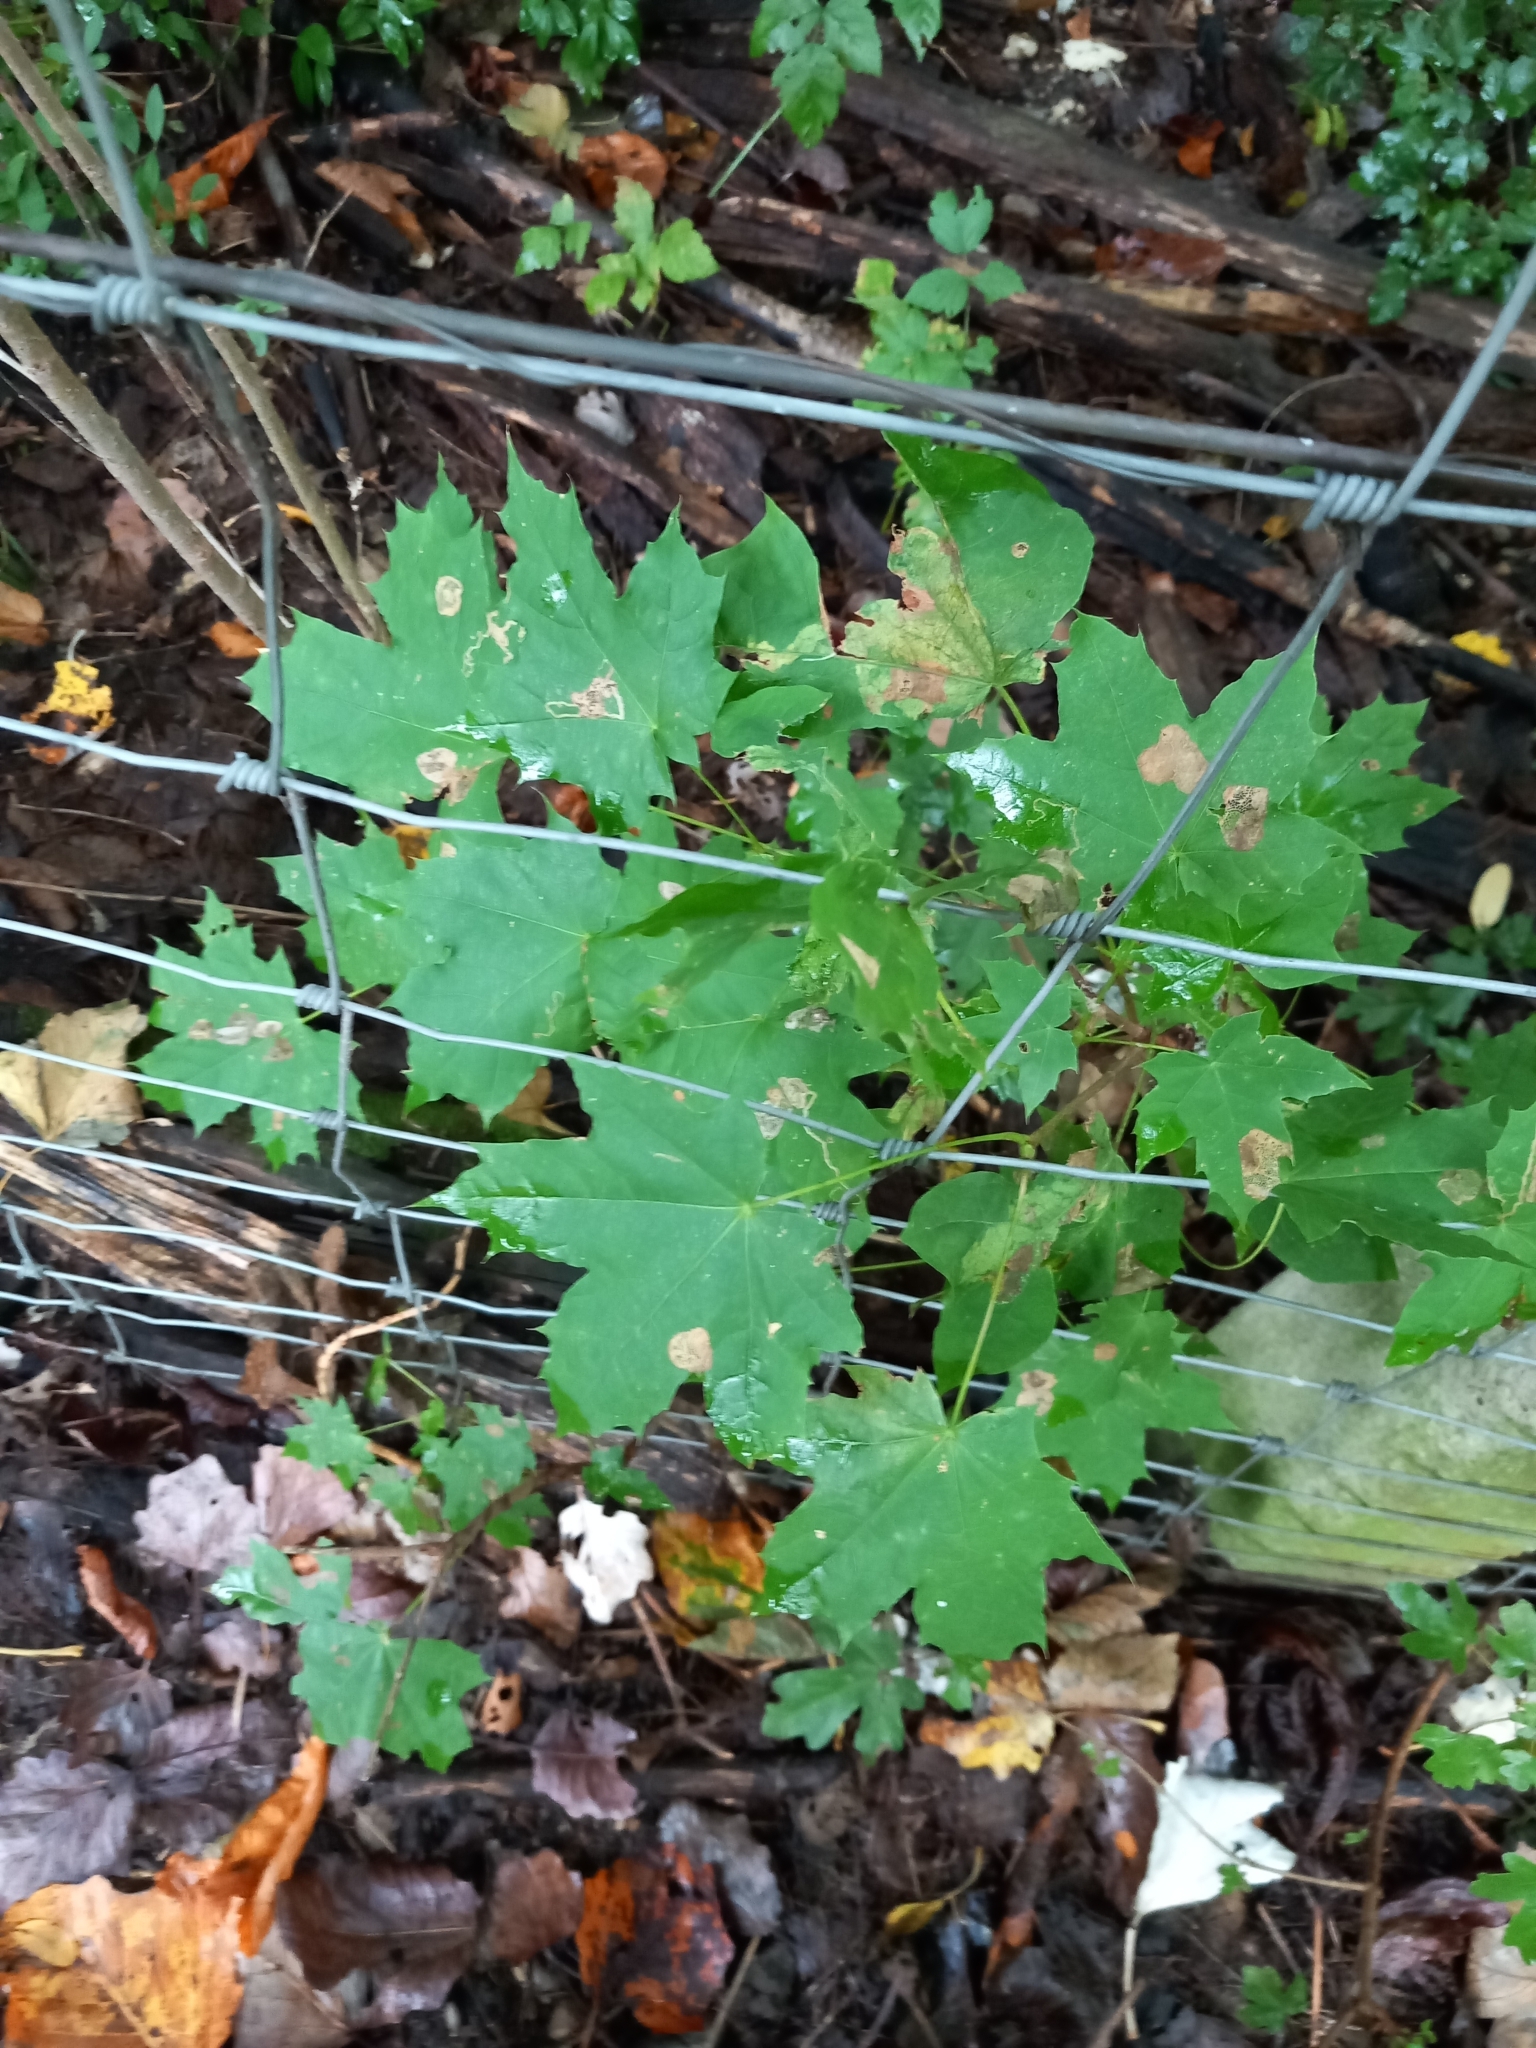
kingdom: Plantae
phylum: Tracheophyta
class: Magnoliopsida
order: Sapindales
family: Sapindaceae
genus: Acer
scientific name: Acer platanoides
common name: Norway maple
